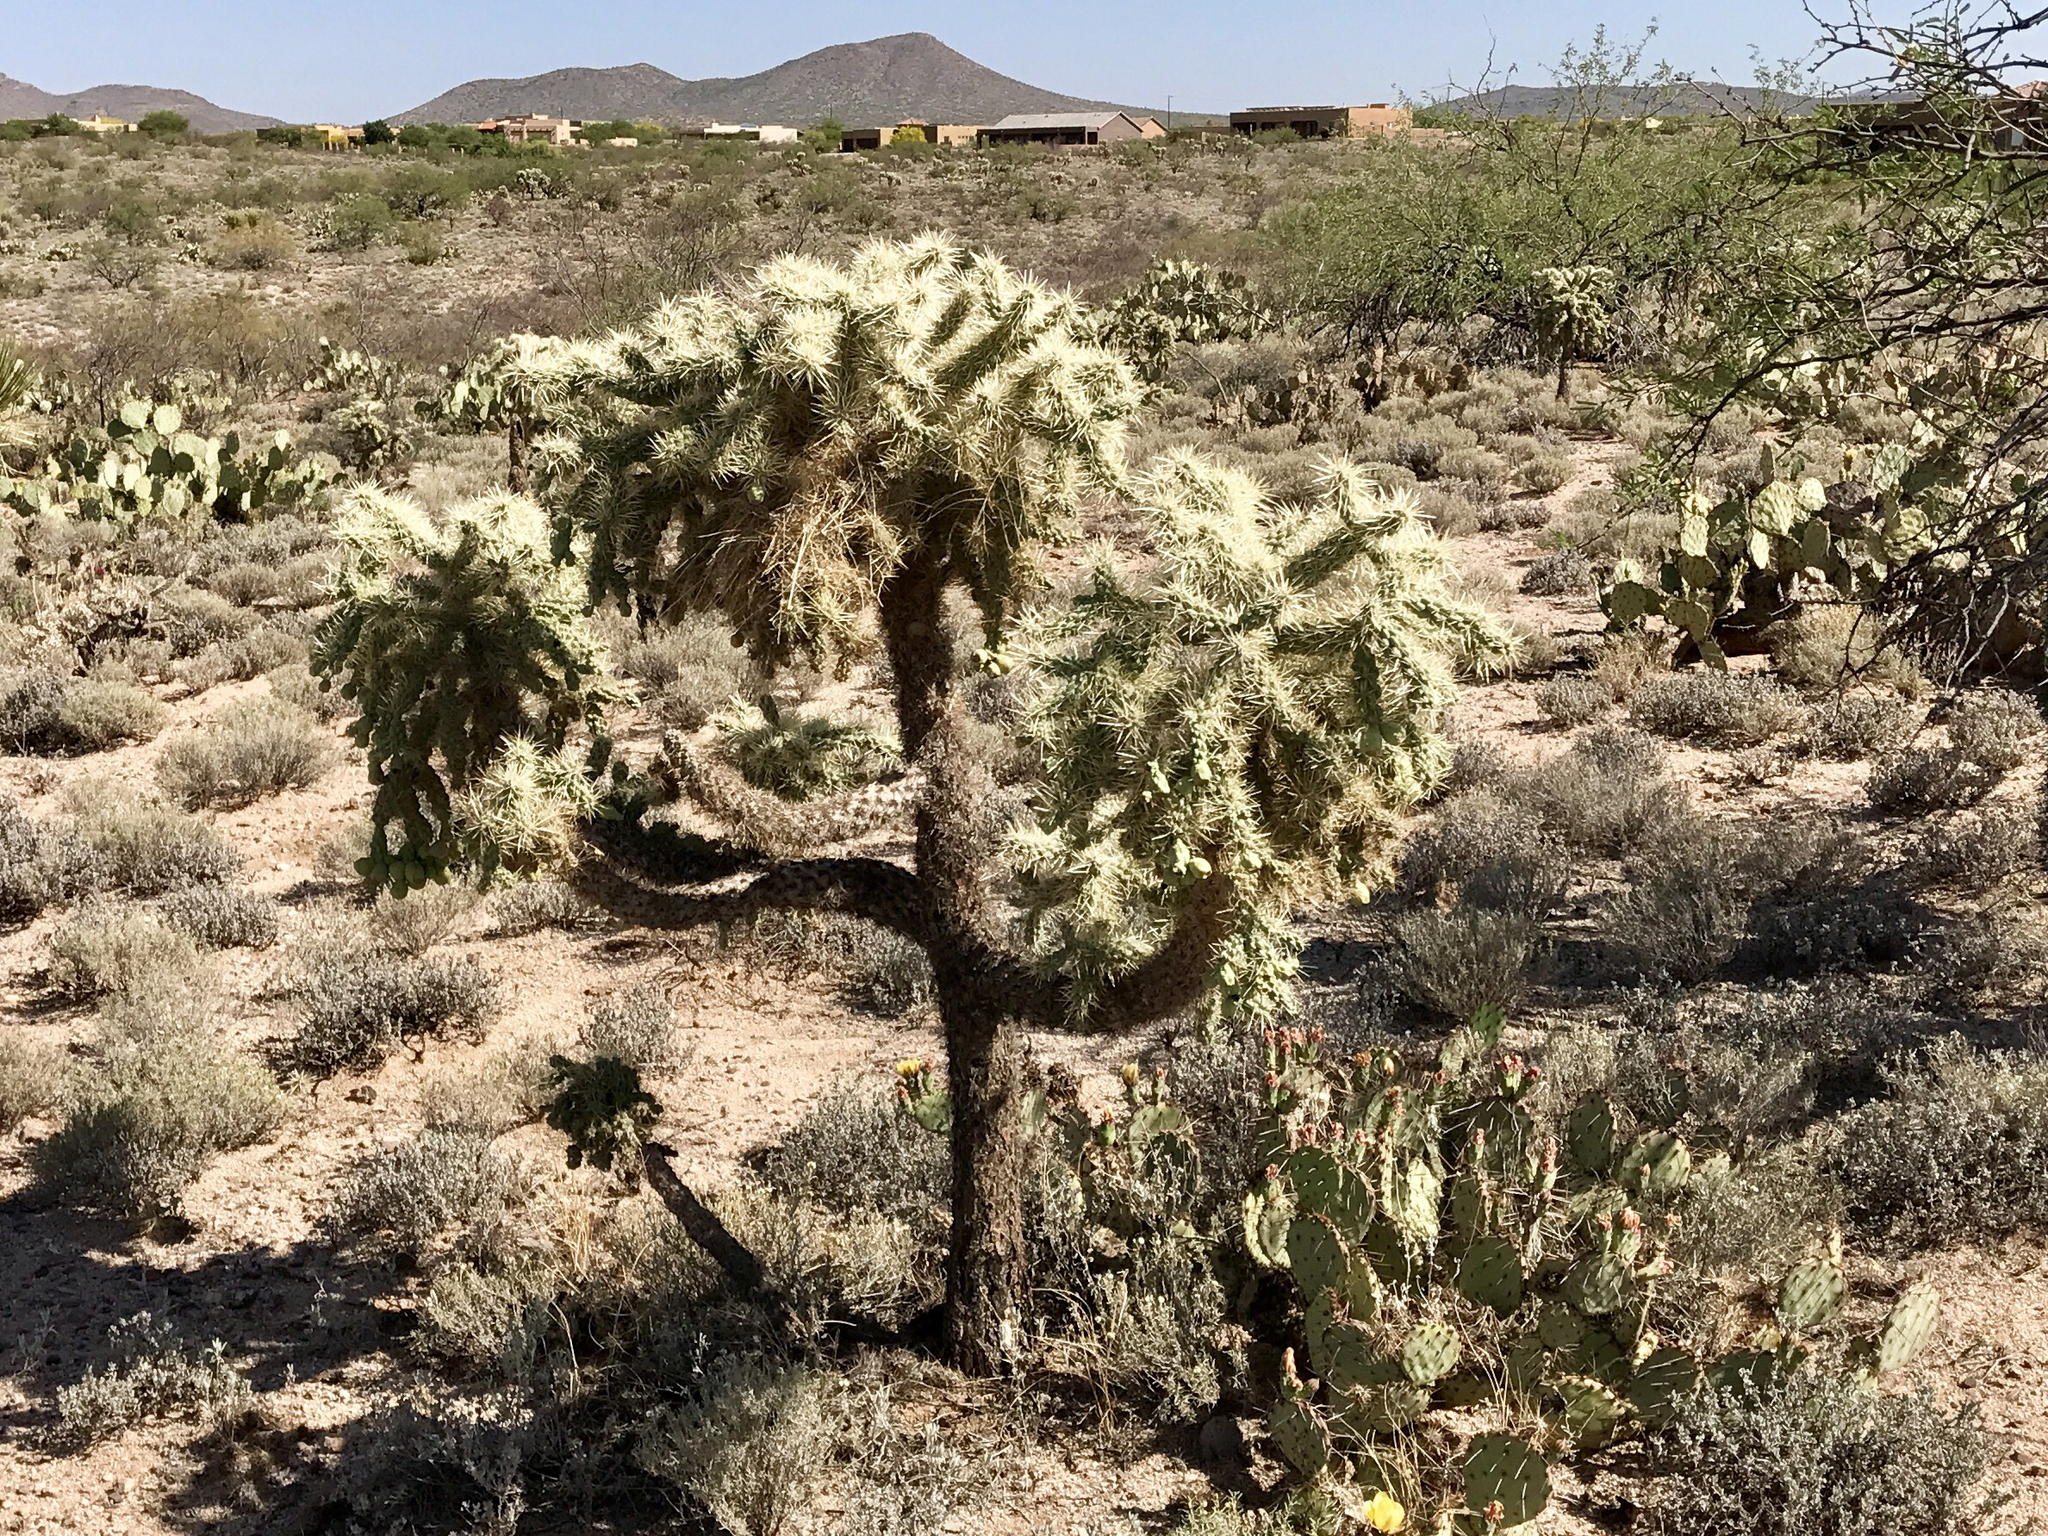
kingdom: Plantae
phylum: Tracheophyta
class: Magnoliopsida
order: Caryophyllales
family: Cactaceae
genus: Cylindropuntia
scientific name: Cylindropuntia fulgida
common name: Jumping cholla
